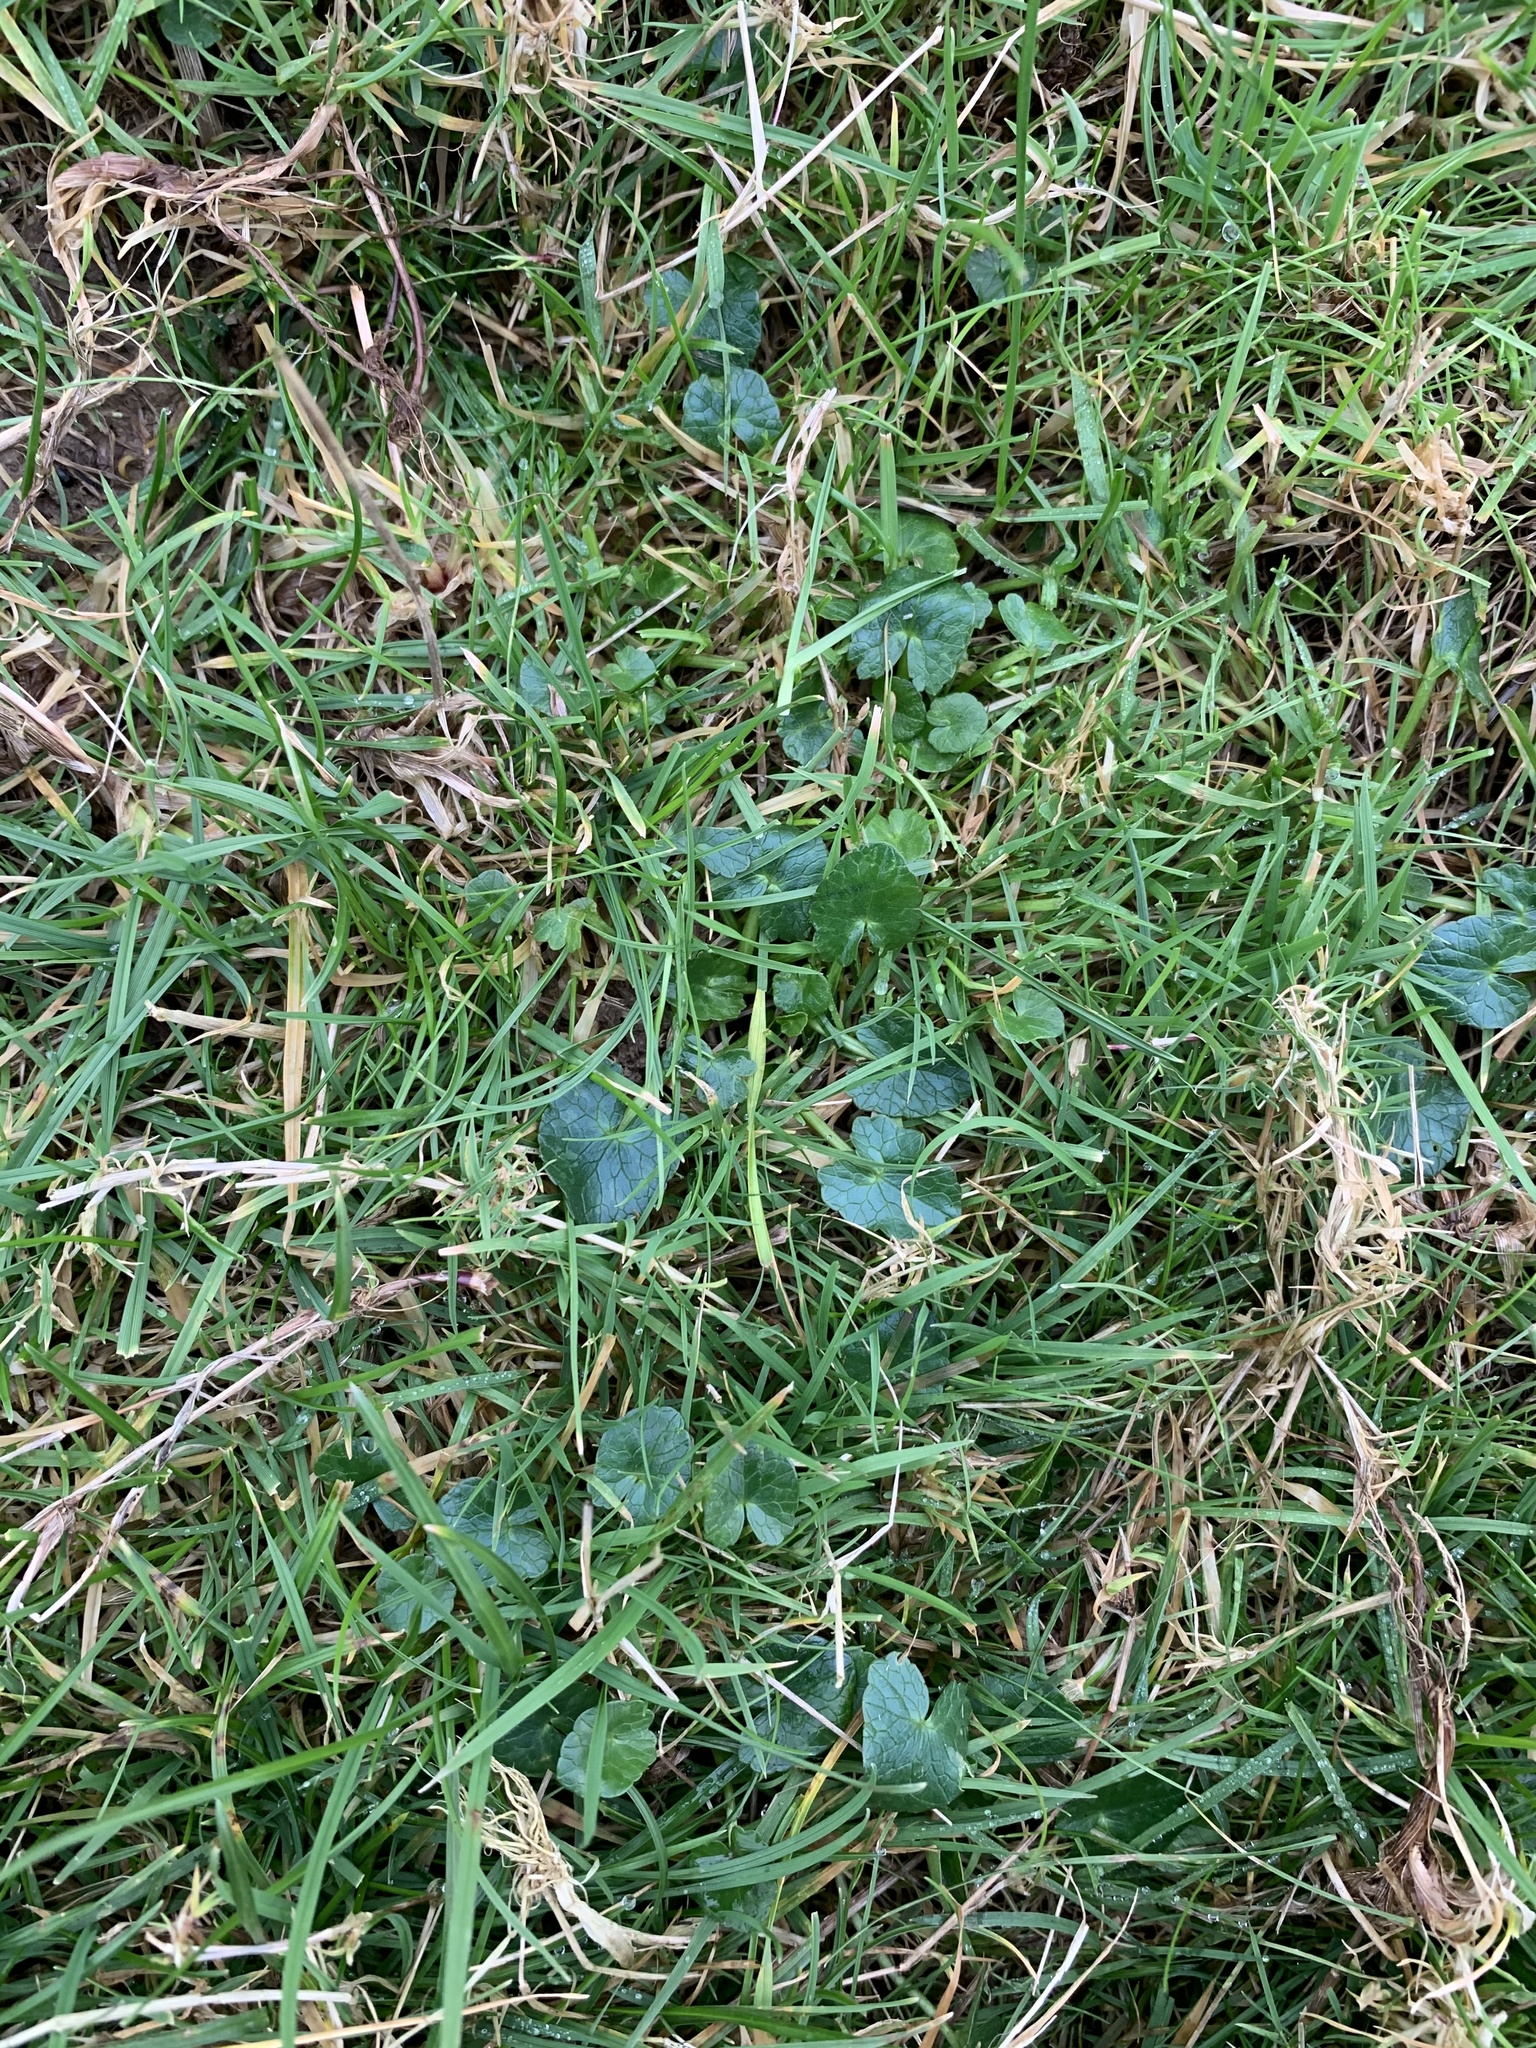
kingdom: Plantae
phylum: Tracheophyta
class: Magnoliopsida
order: Ranunculales
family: Ranunculaceae
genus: Ficaria
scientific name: Ficaria verna
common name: Lesser celandine
